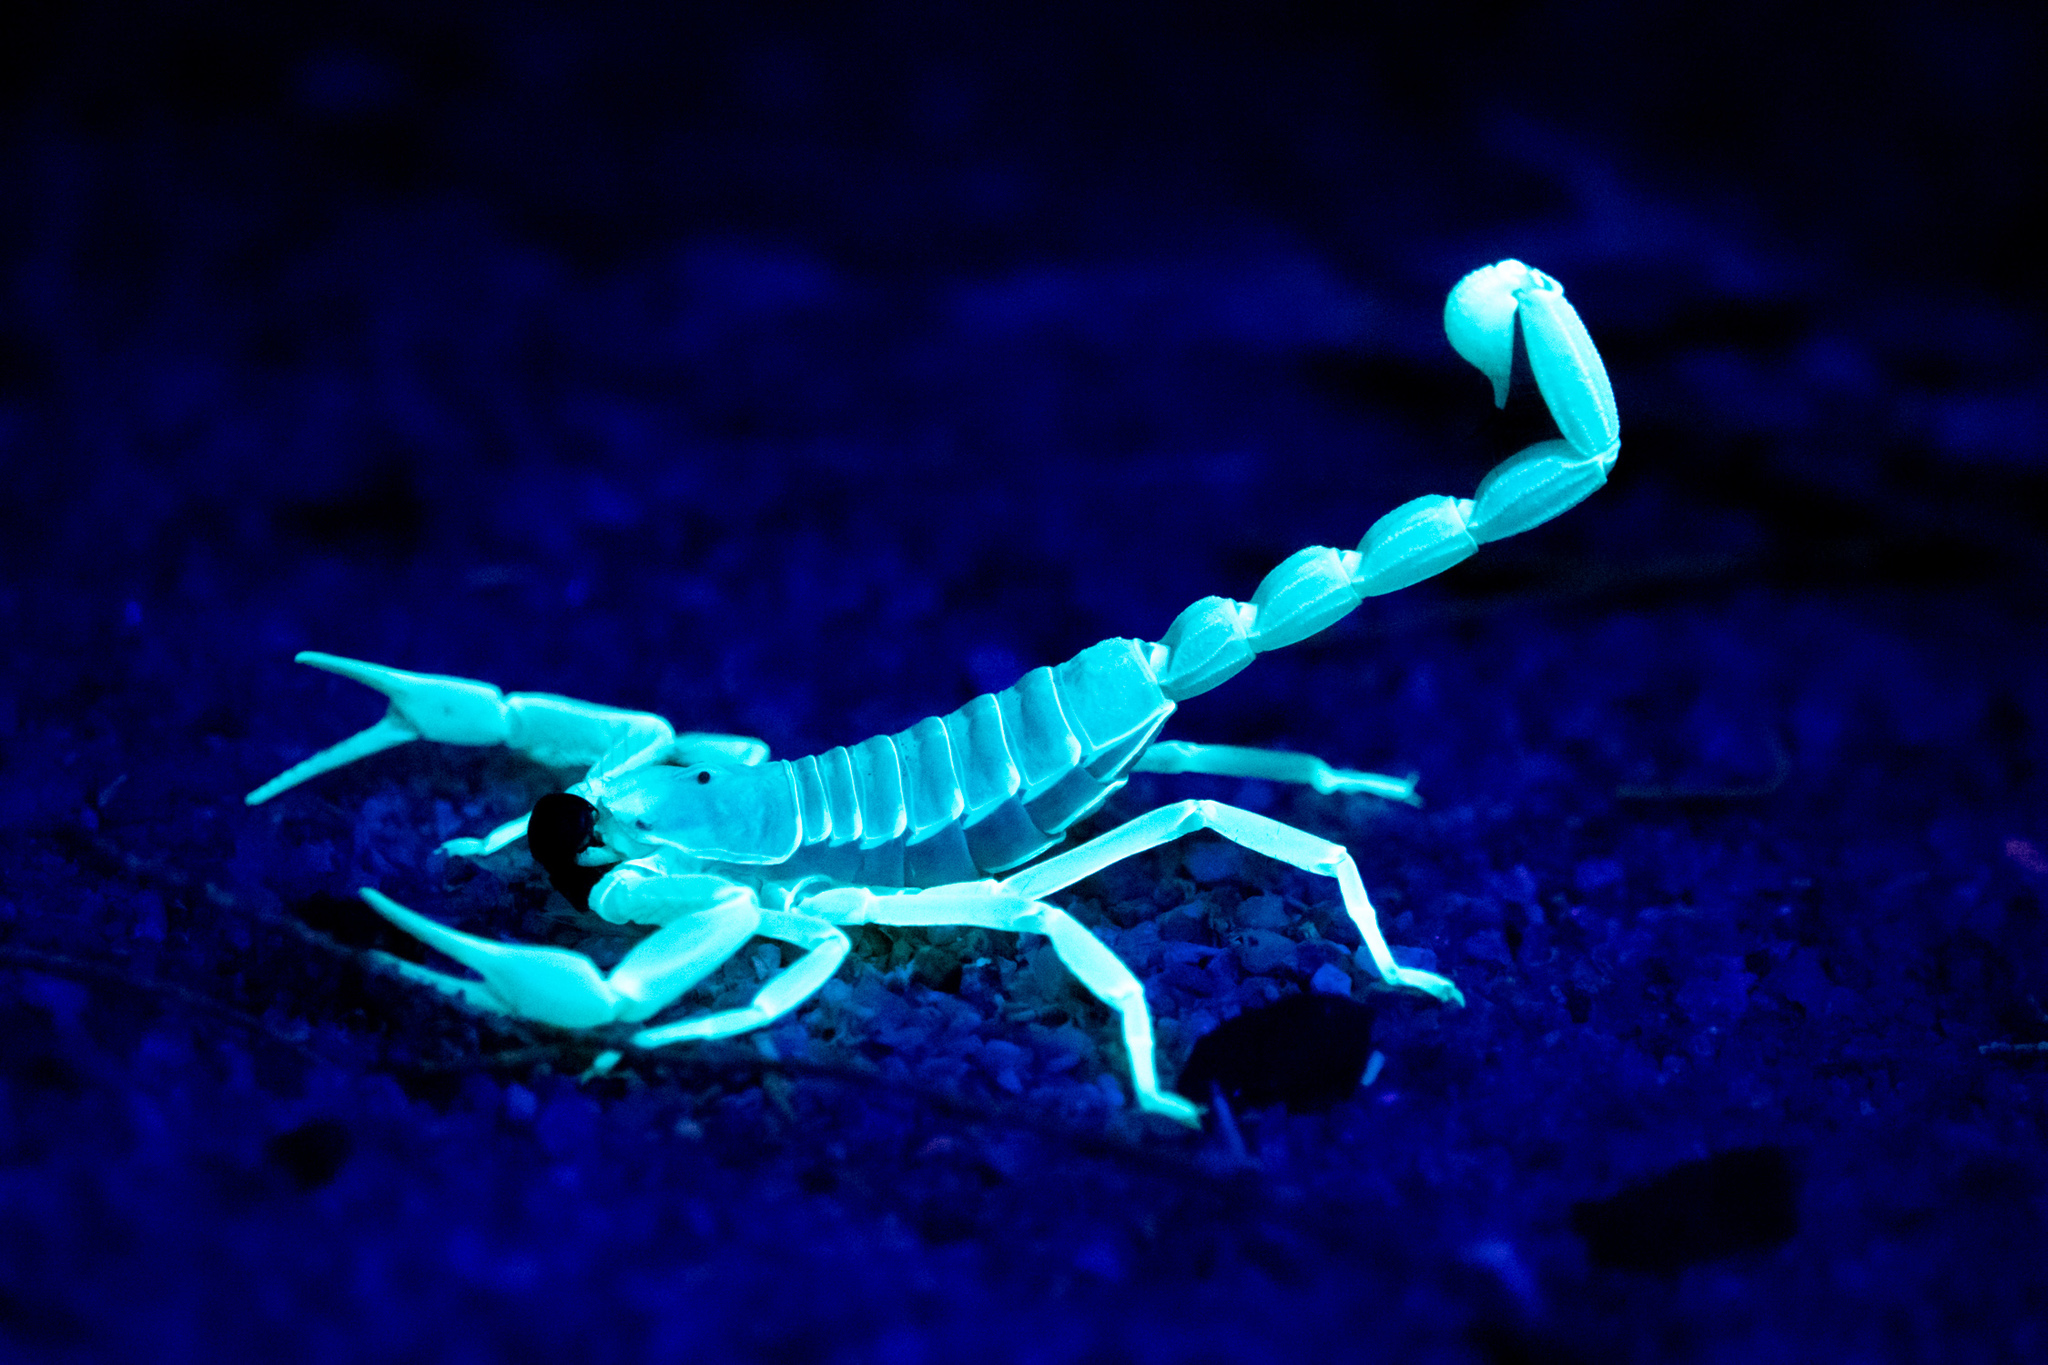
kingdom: Animalia
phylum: Arthropoda
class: Arachnida
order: Scorpiones
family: Hadruridae
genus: Hadrurus
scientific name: Hadrurus arizonensis
